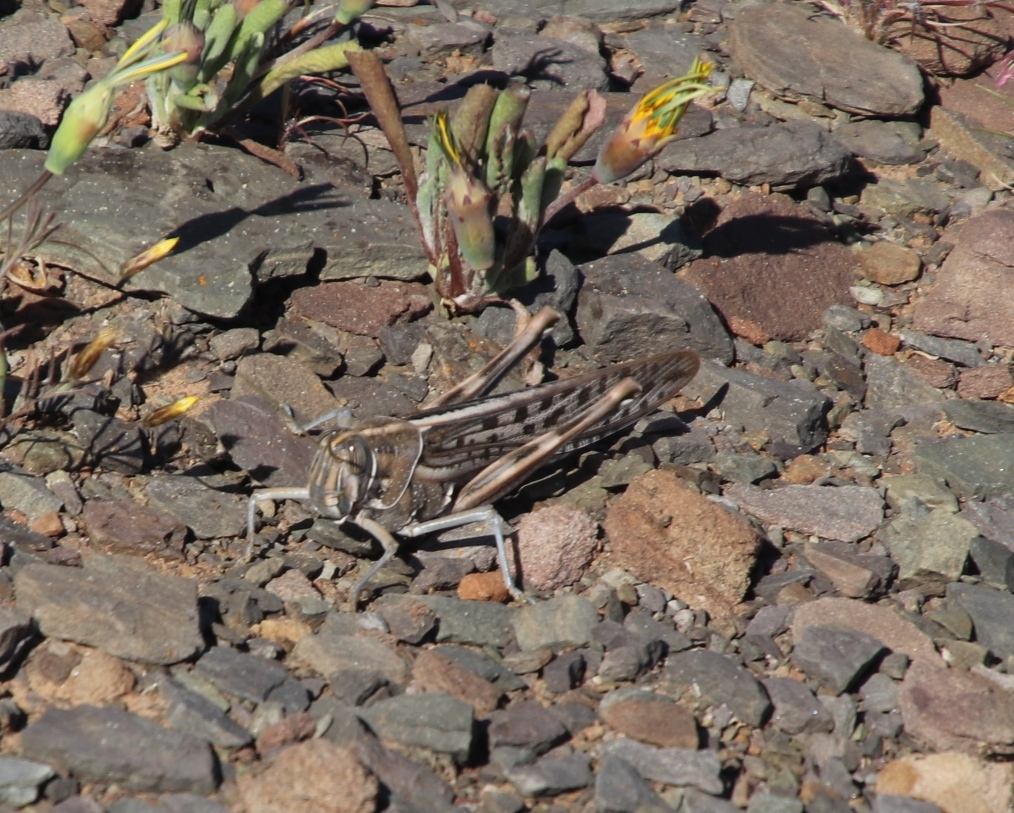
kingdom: Animalia
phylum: Arthropoda
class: Insecta
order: Orthoptera
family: Acrididae
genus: Schistocerca
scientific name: Schistocerca gregaria
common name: Desert locust
